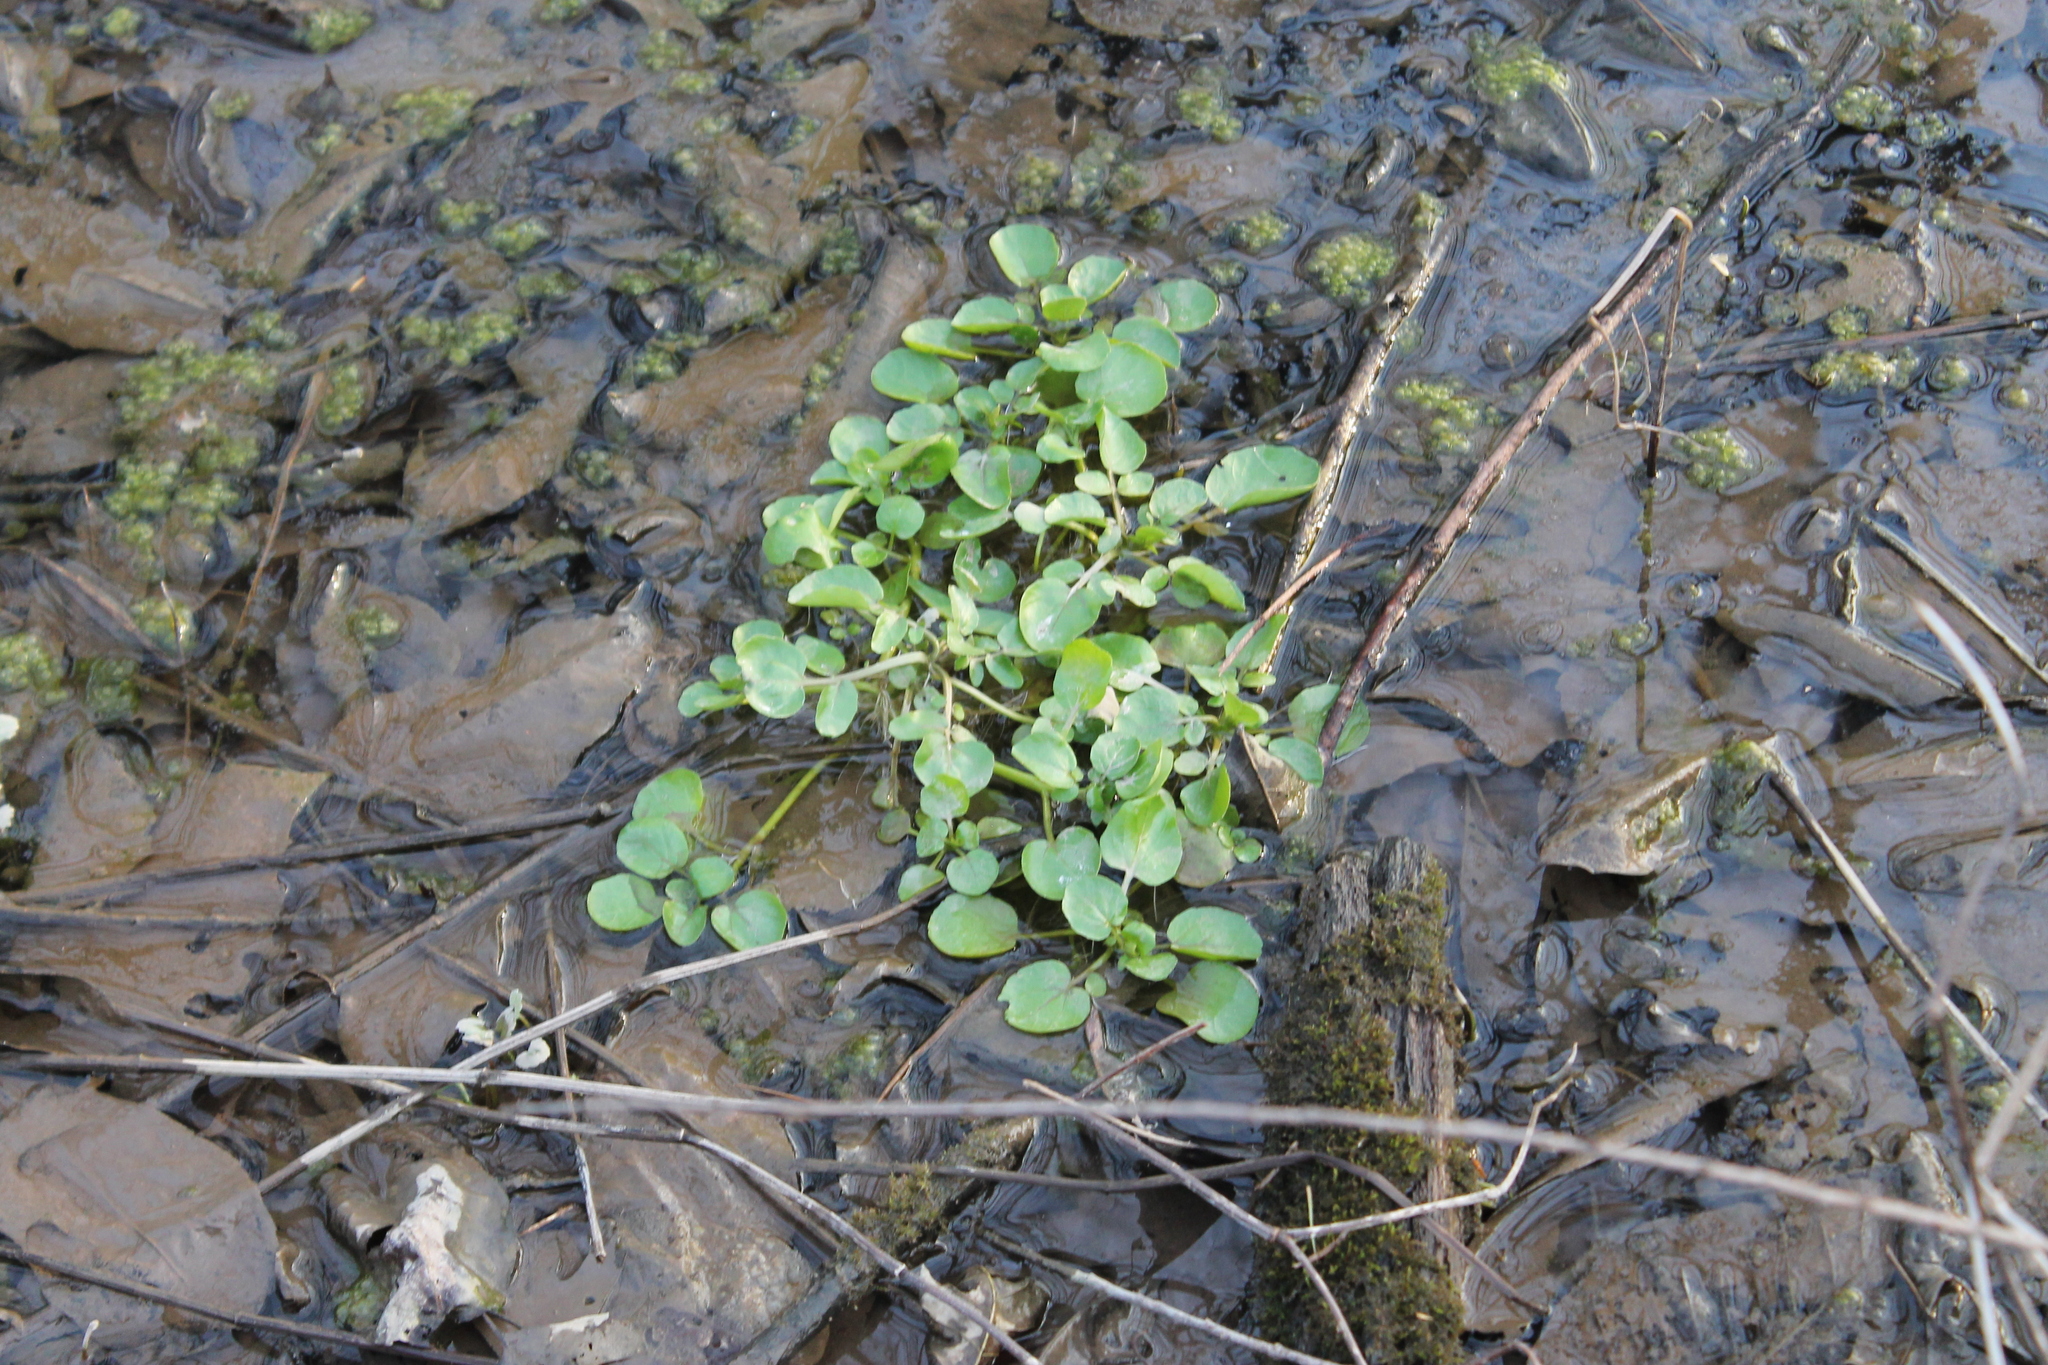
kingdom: Plantae
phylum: Tracheophyta
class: Magnoliopsida
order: Brassicales
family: Brassicaceae
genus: Nasturtium
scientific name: Nasturtium officinale
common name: Watercress
